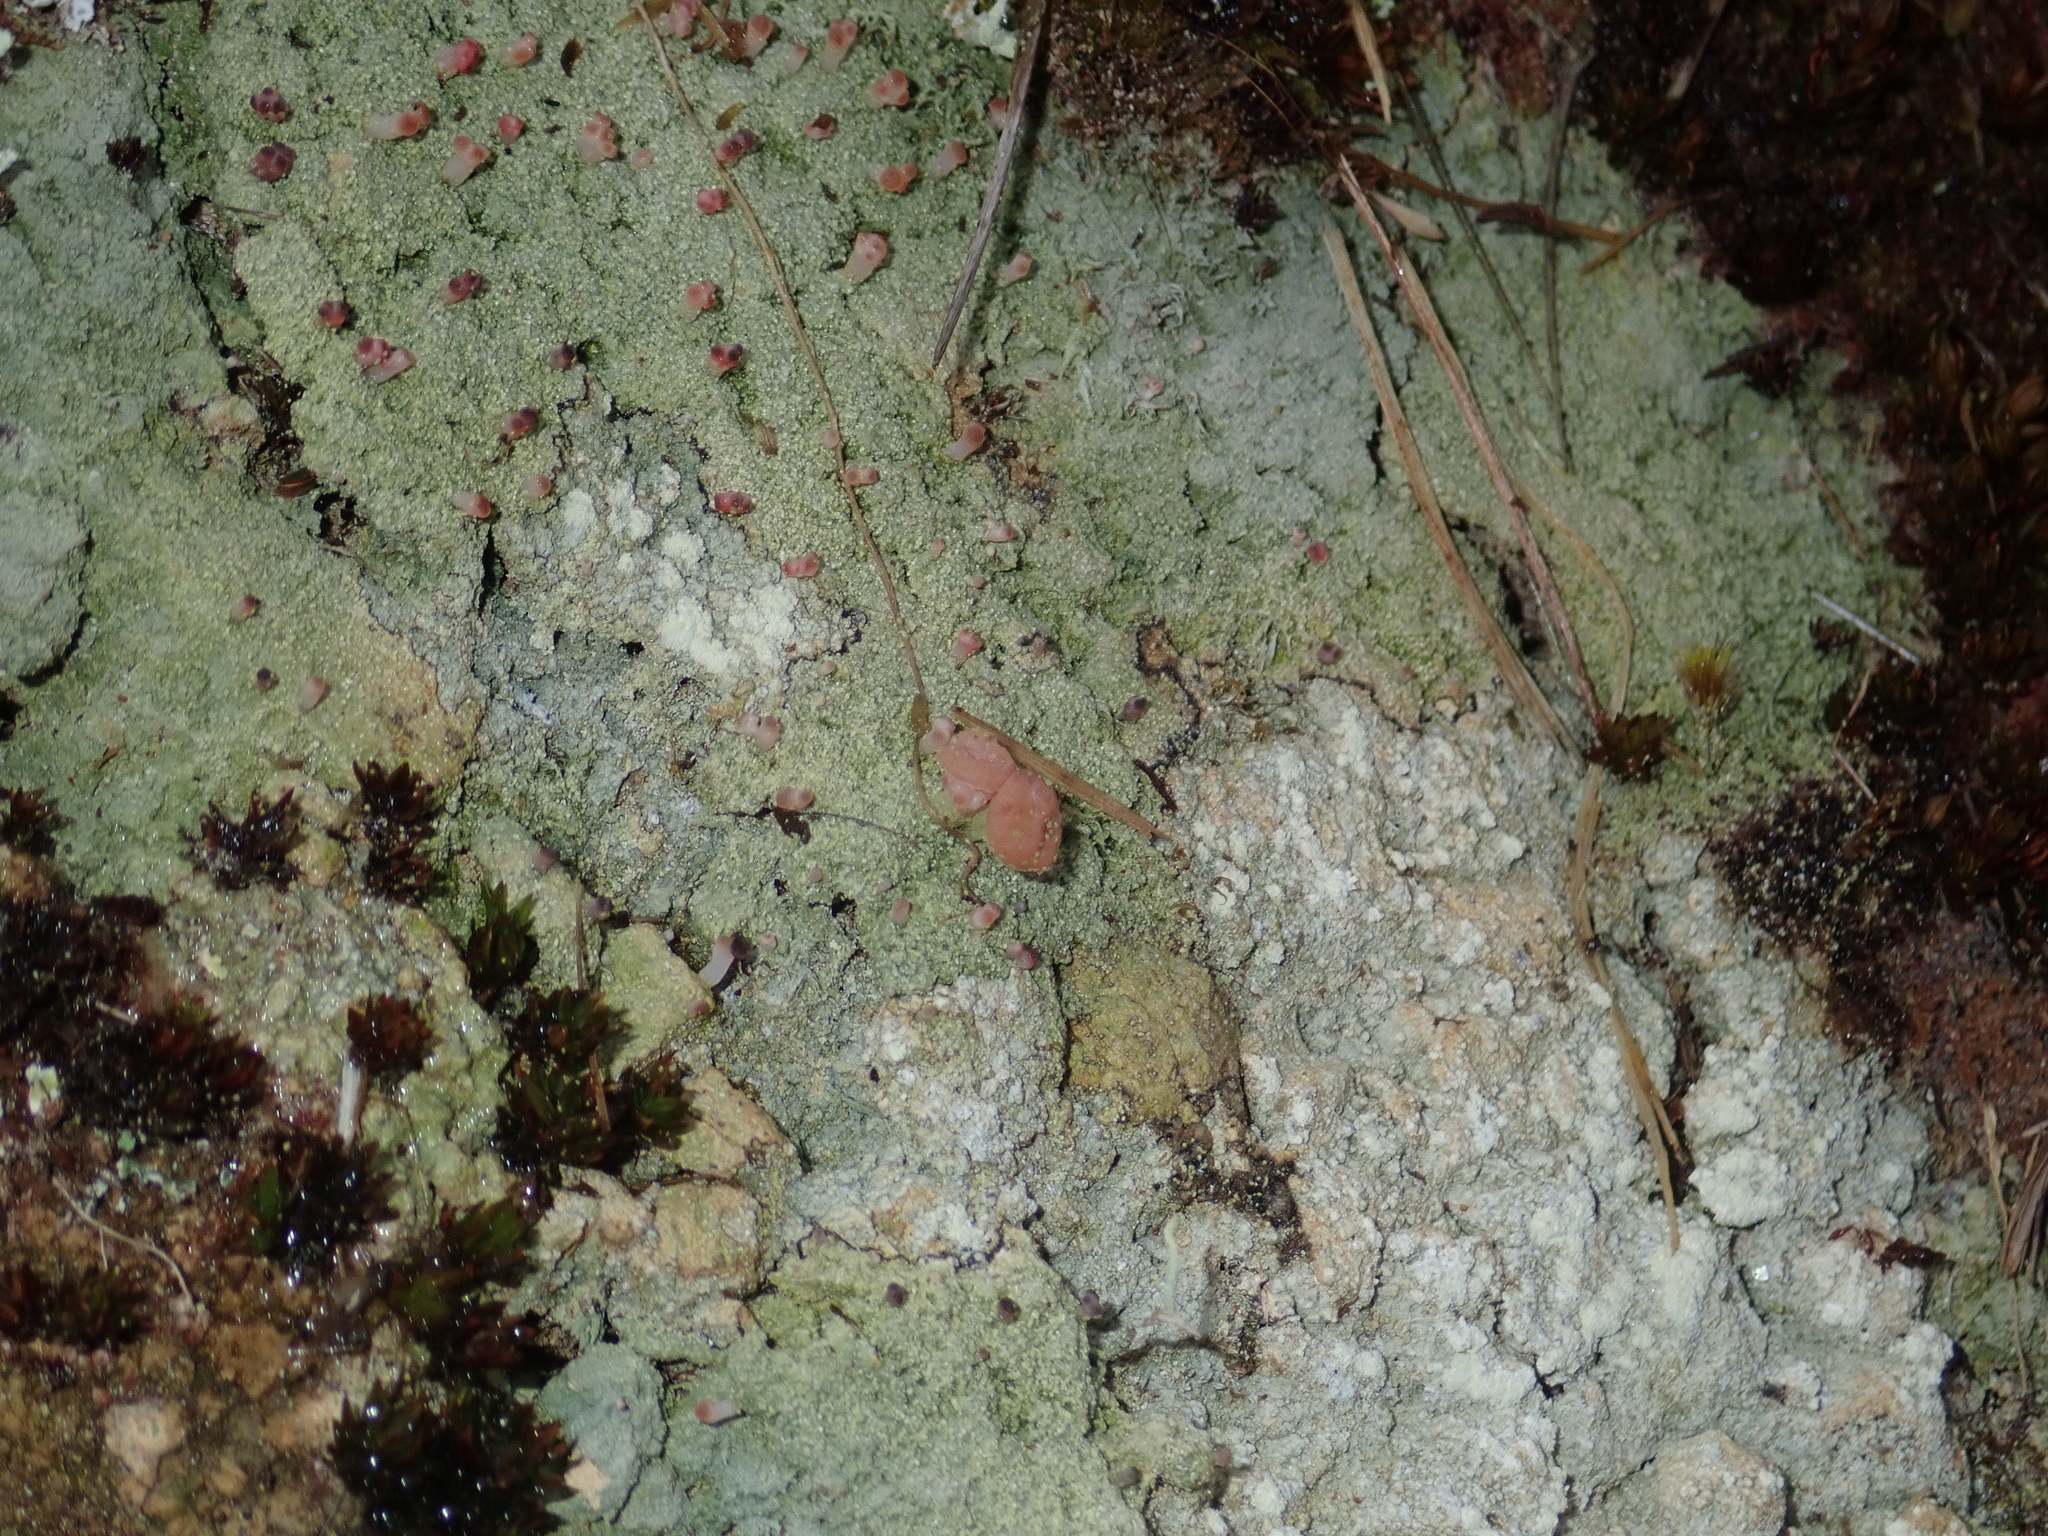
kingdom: Fungi
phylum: Ascomycota
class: Lecanoromycetes
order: Baeomycetales
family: Baeomycetaceae
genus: Baeomyces
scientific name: Baeomyces heteromorphus
